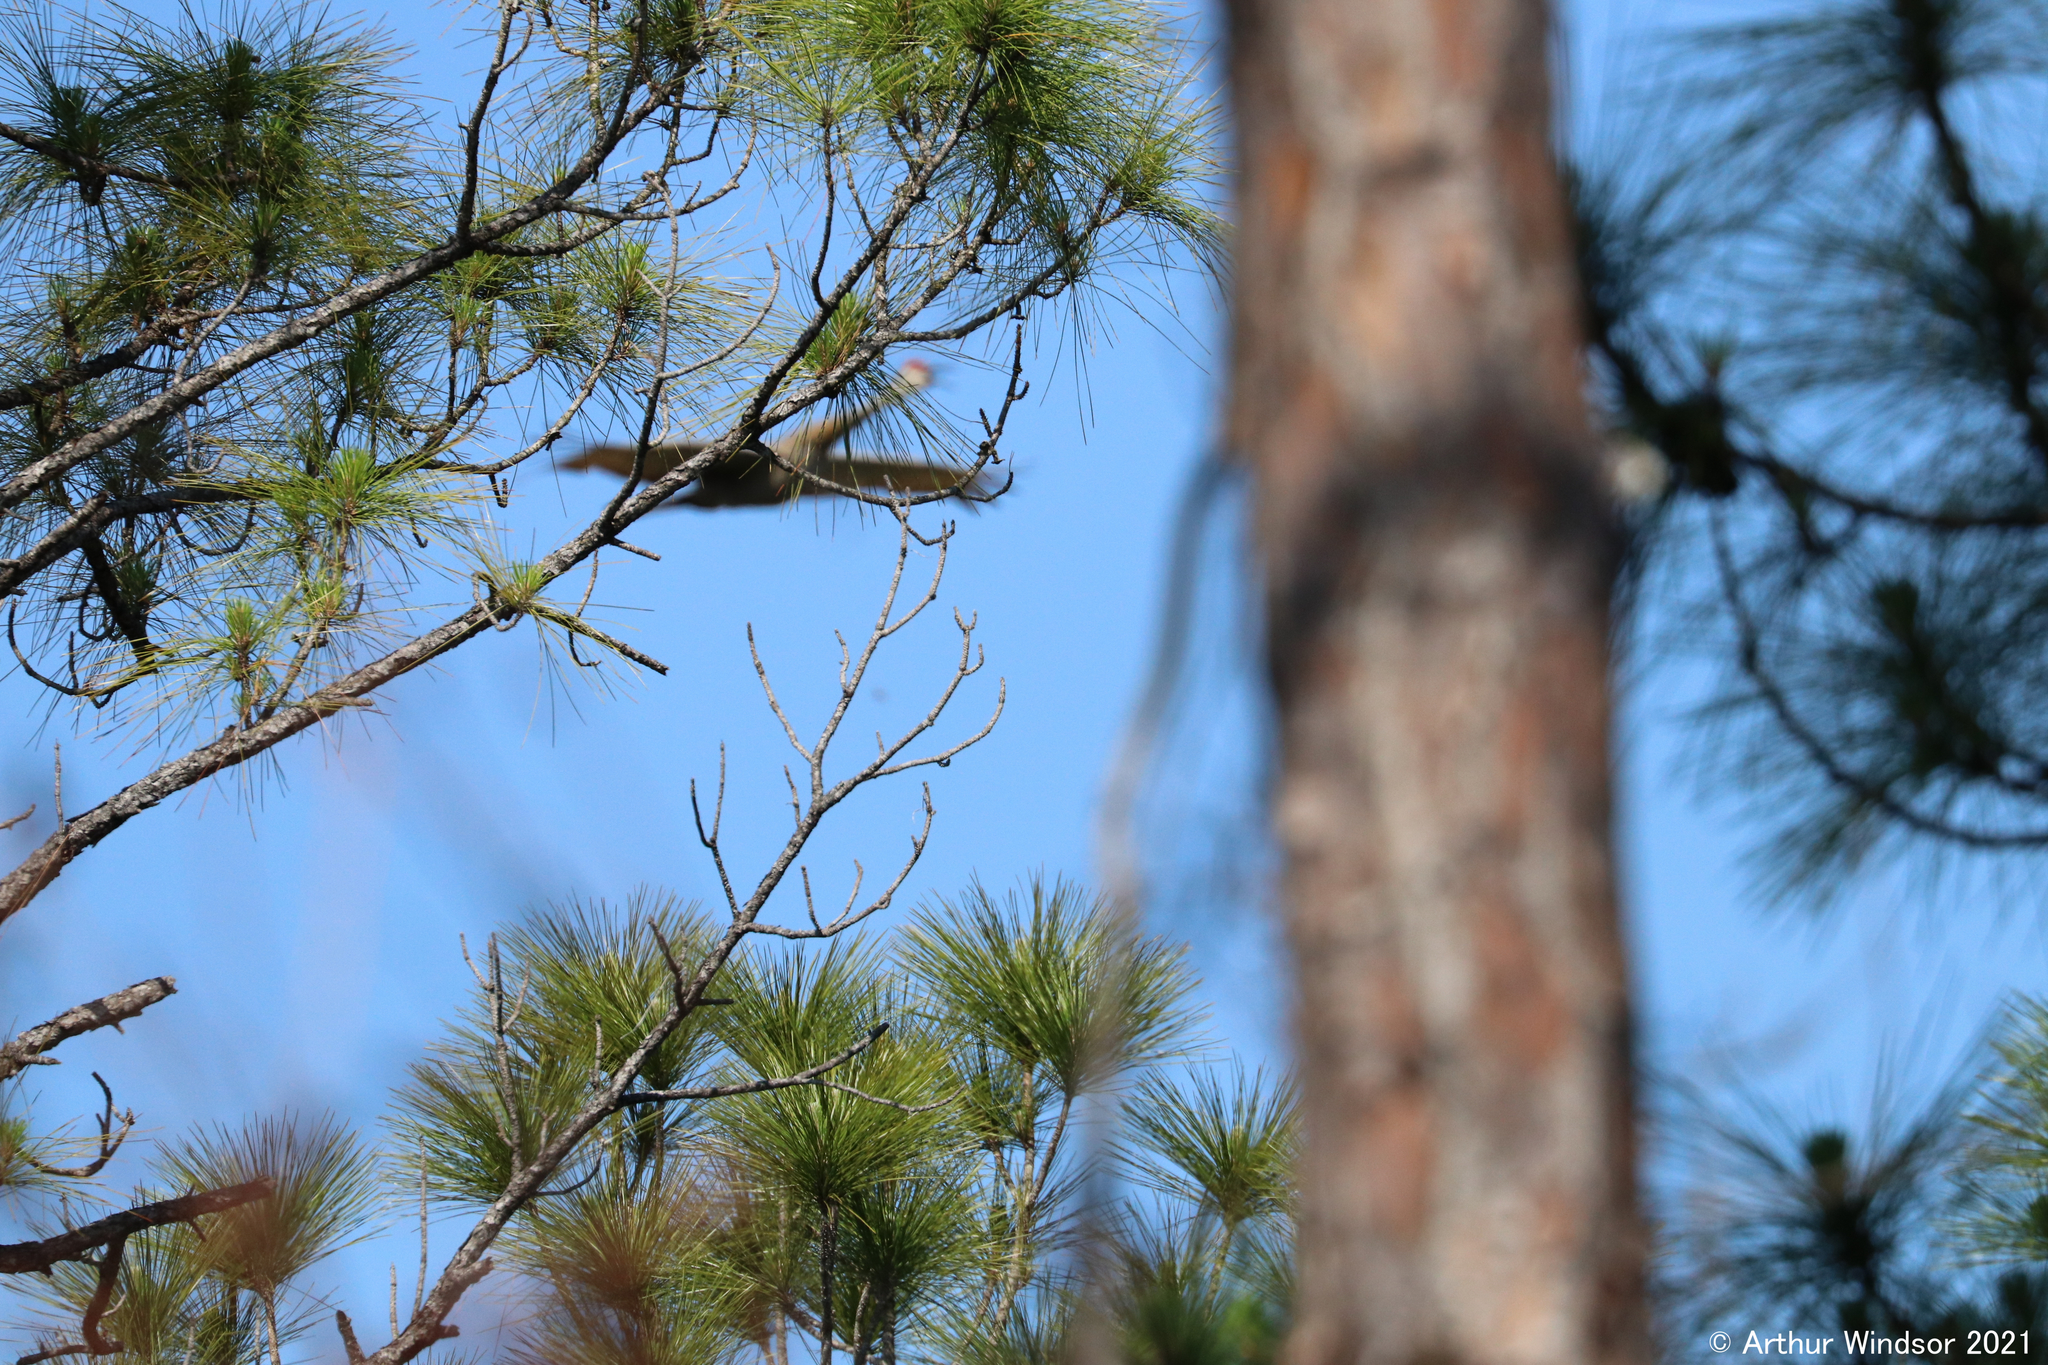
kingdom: Animalia
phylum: Chordata
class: Aves
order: Gruiformes
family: Gruidae
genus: Grus
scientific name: Grus canadensis
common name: Sandhill crane
